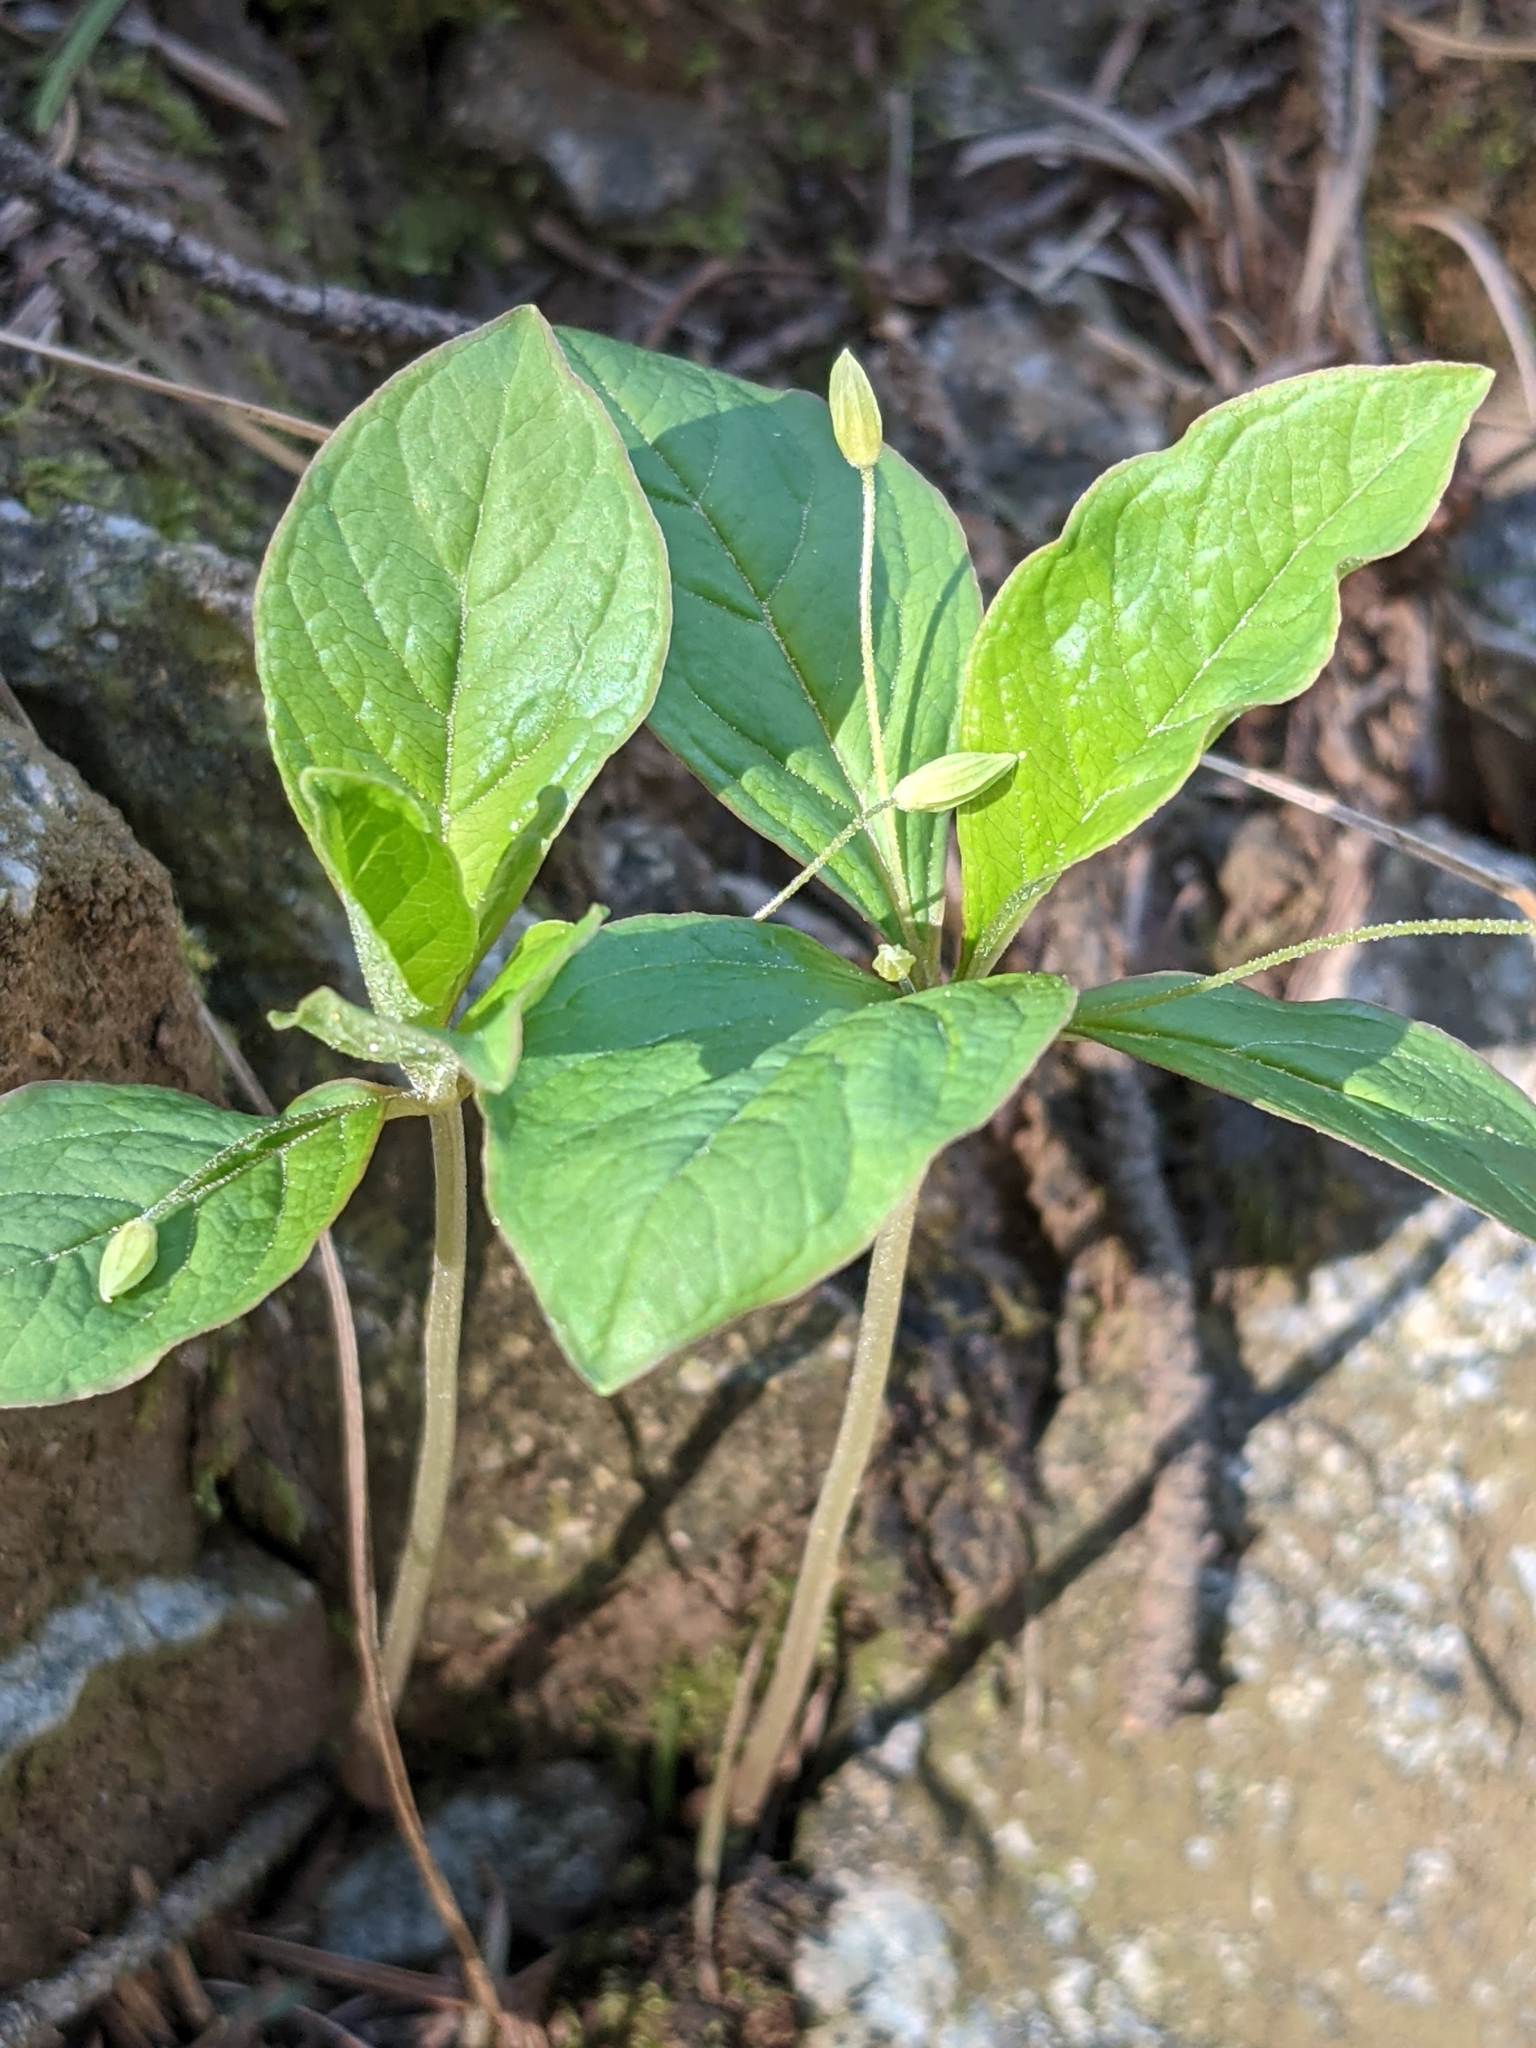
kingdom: Plantae
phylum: Tracheophyta
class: Magnoliopsida
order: Ericales
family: Primulaceae
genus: Lysimachia
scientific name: Lysimachia latifolia
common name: Pacific starflower
